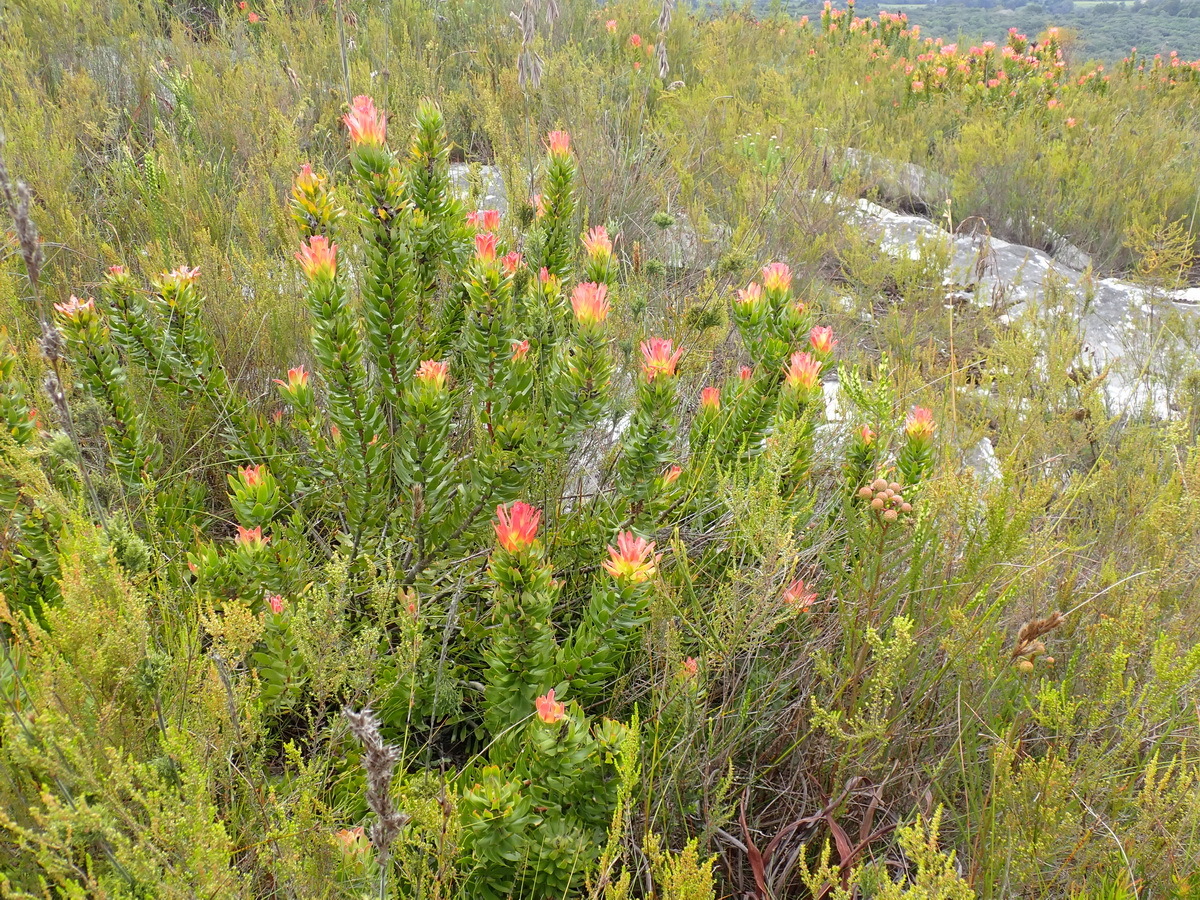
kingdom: Plantae
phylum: Tracheophyta
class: Magnoliopsida
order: Proteales
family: Proteaceae
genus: Mimetes
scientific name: Mimetes cucullatus
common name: Common pagoda
